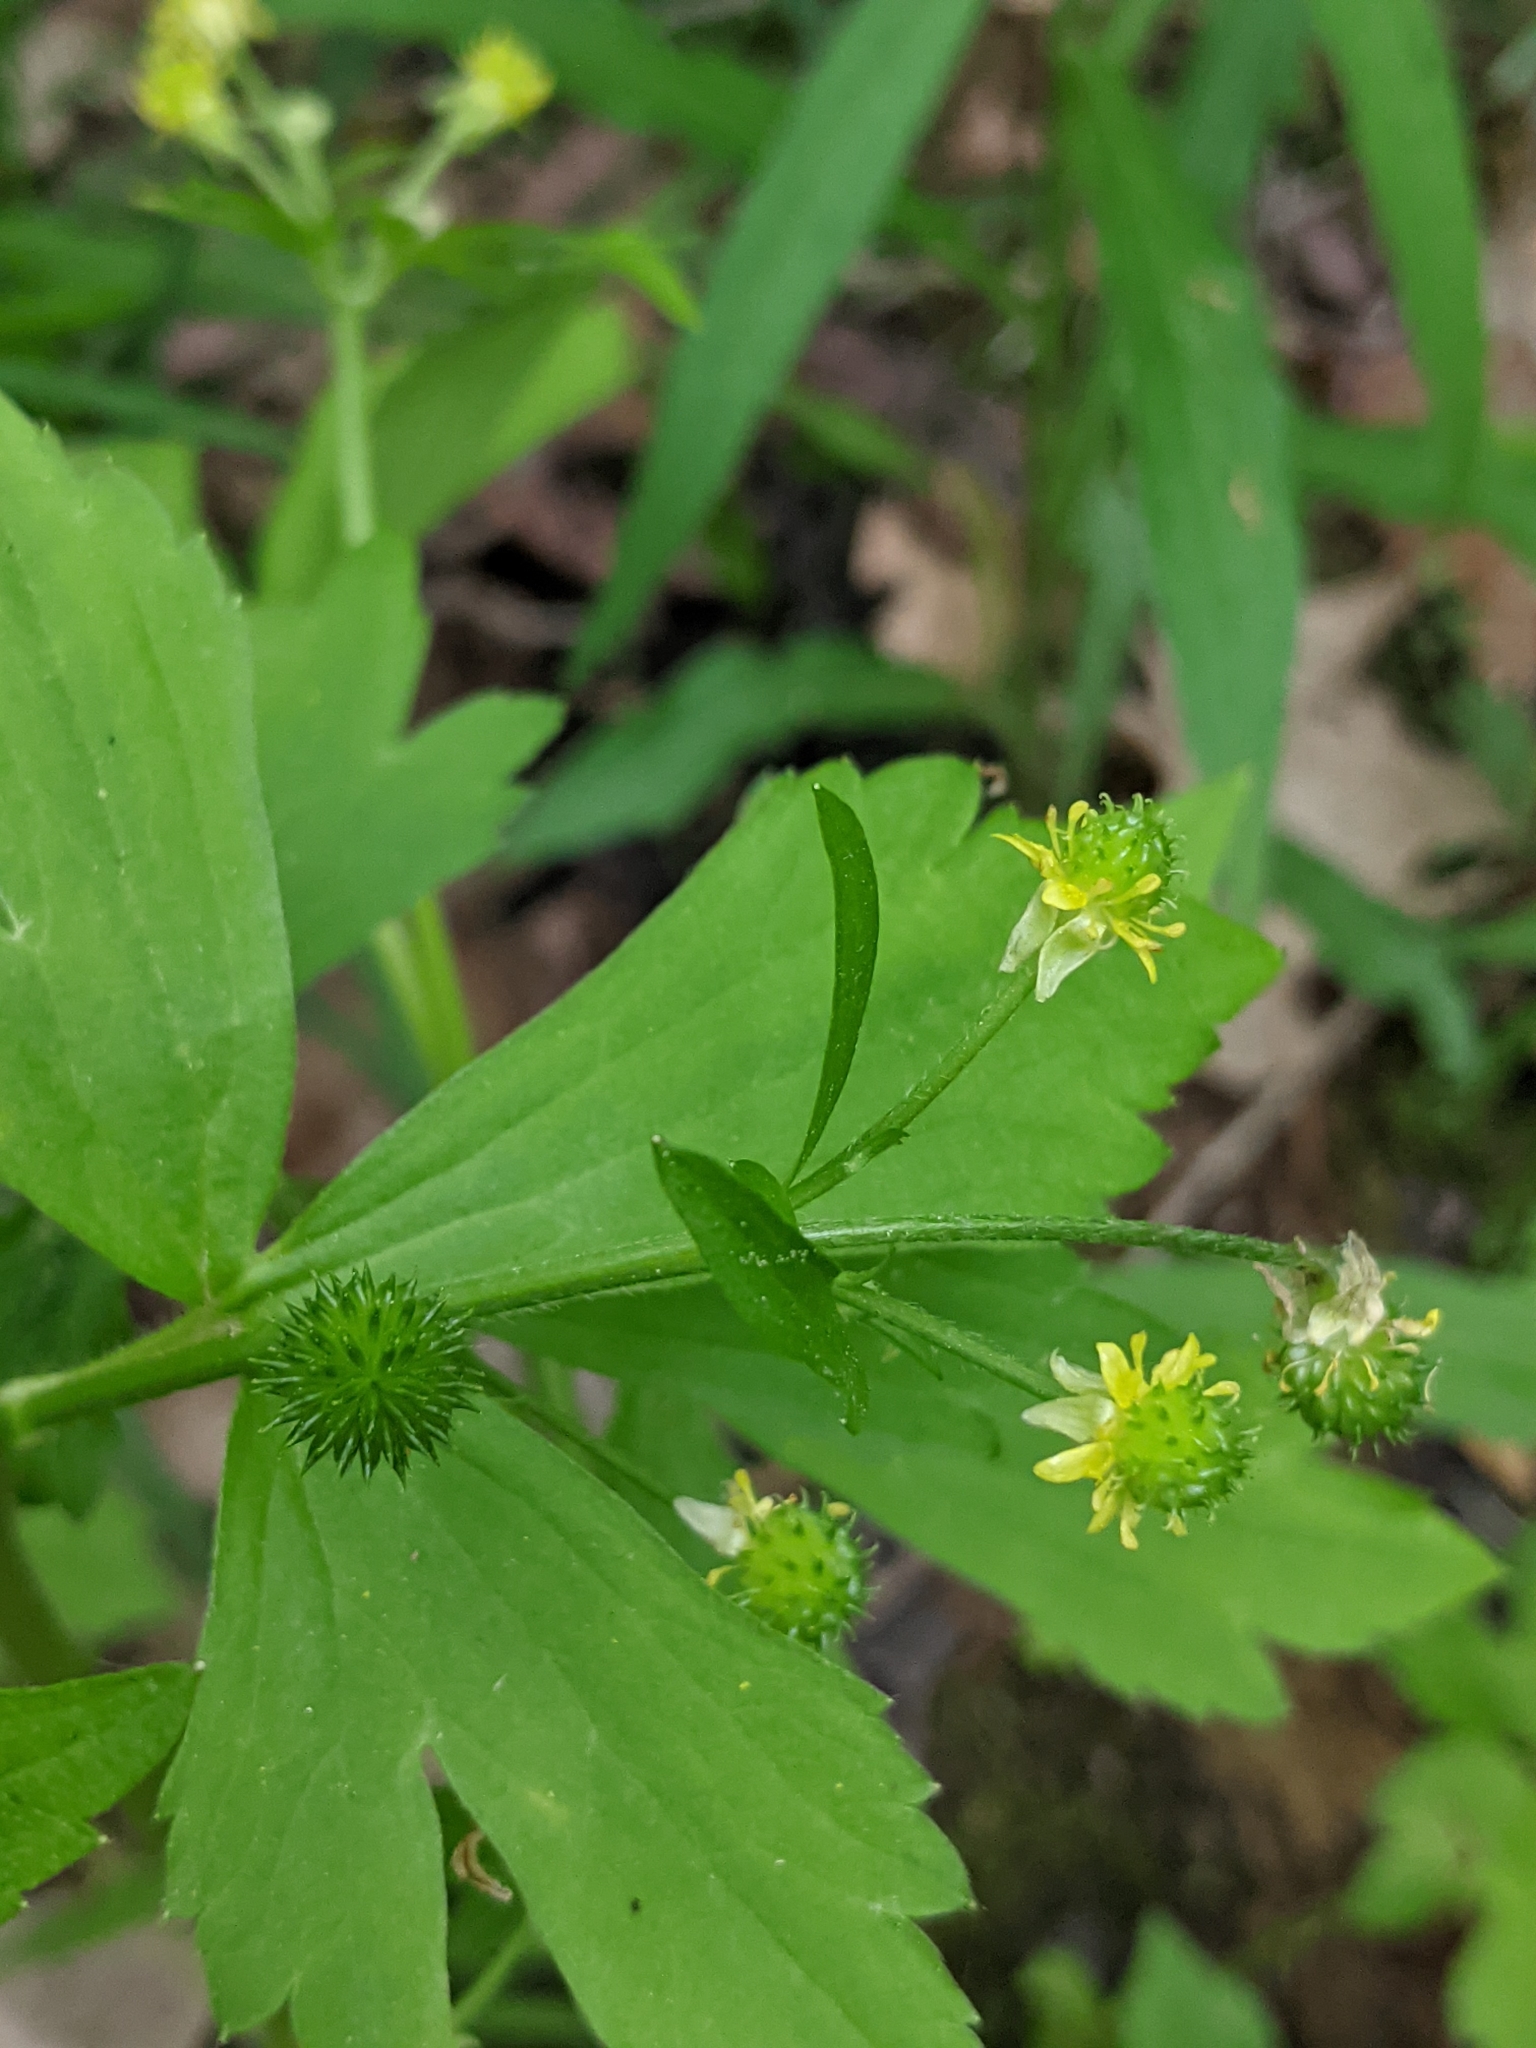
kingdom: Plantae
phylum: Tracheophyta
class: Magnoliopsida
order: Ranunculales
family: Ranunculaceae
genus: Ranunculus
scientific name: Ranunculus recurvatus
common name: Blisterwort
